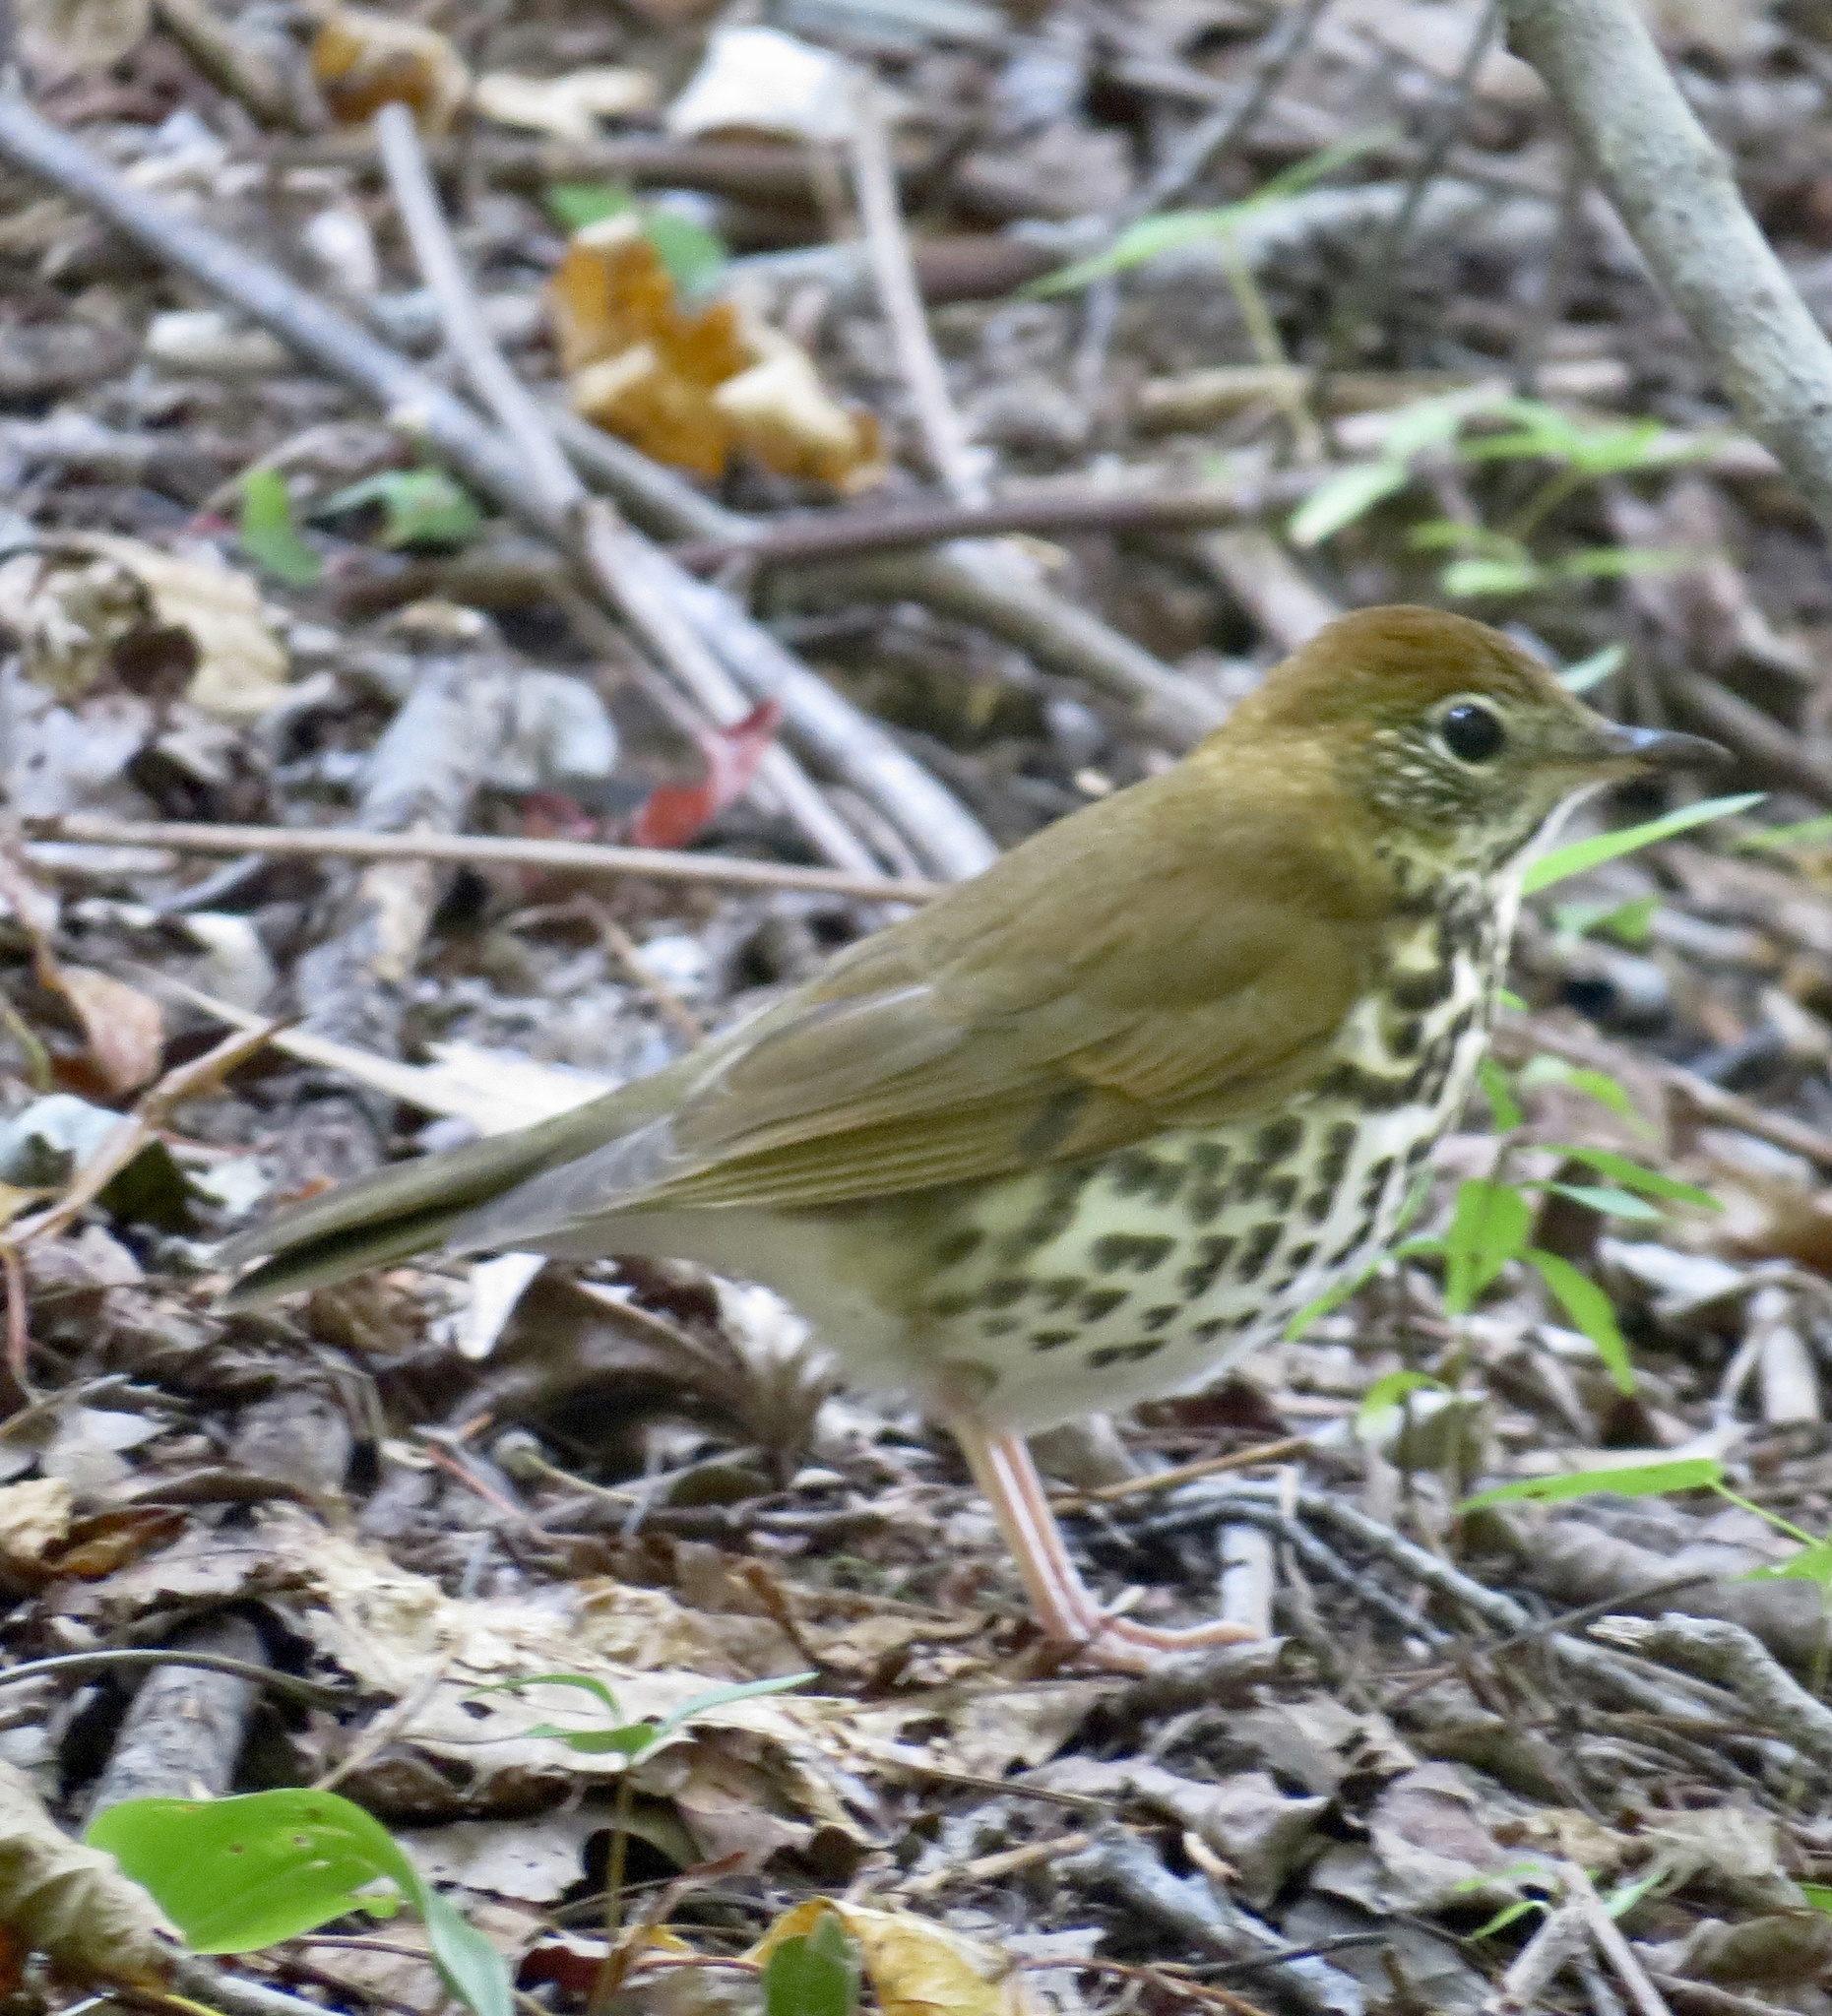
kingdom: Animalia
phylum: Chordata
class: Aves
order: Passeriformes
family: Turdidae
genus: Hylocichla
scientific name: Hylocichla mustelina
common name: Wood thrush
